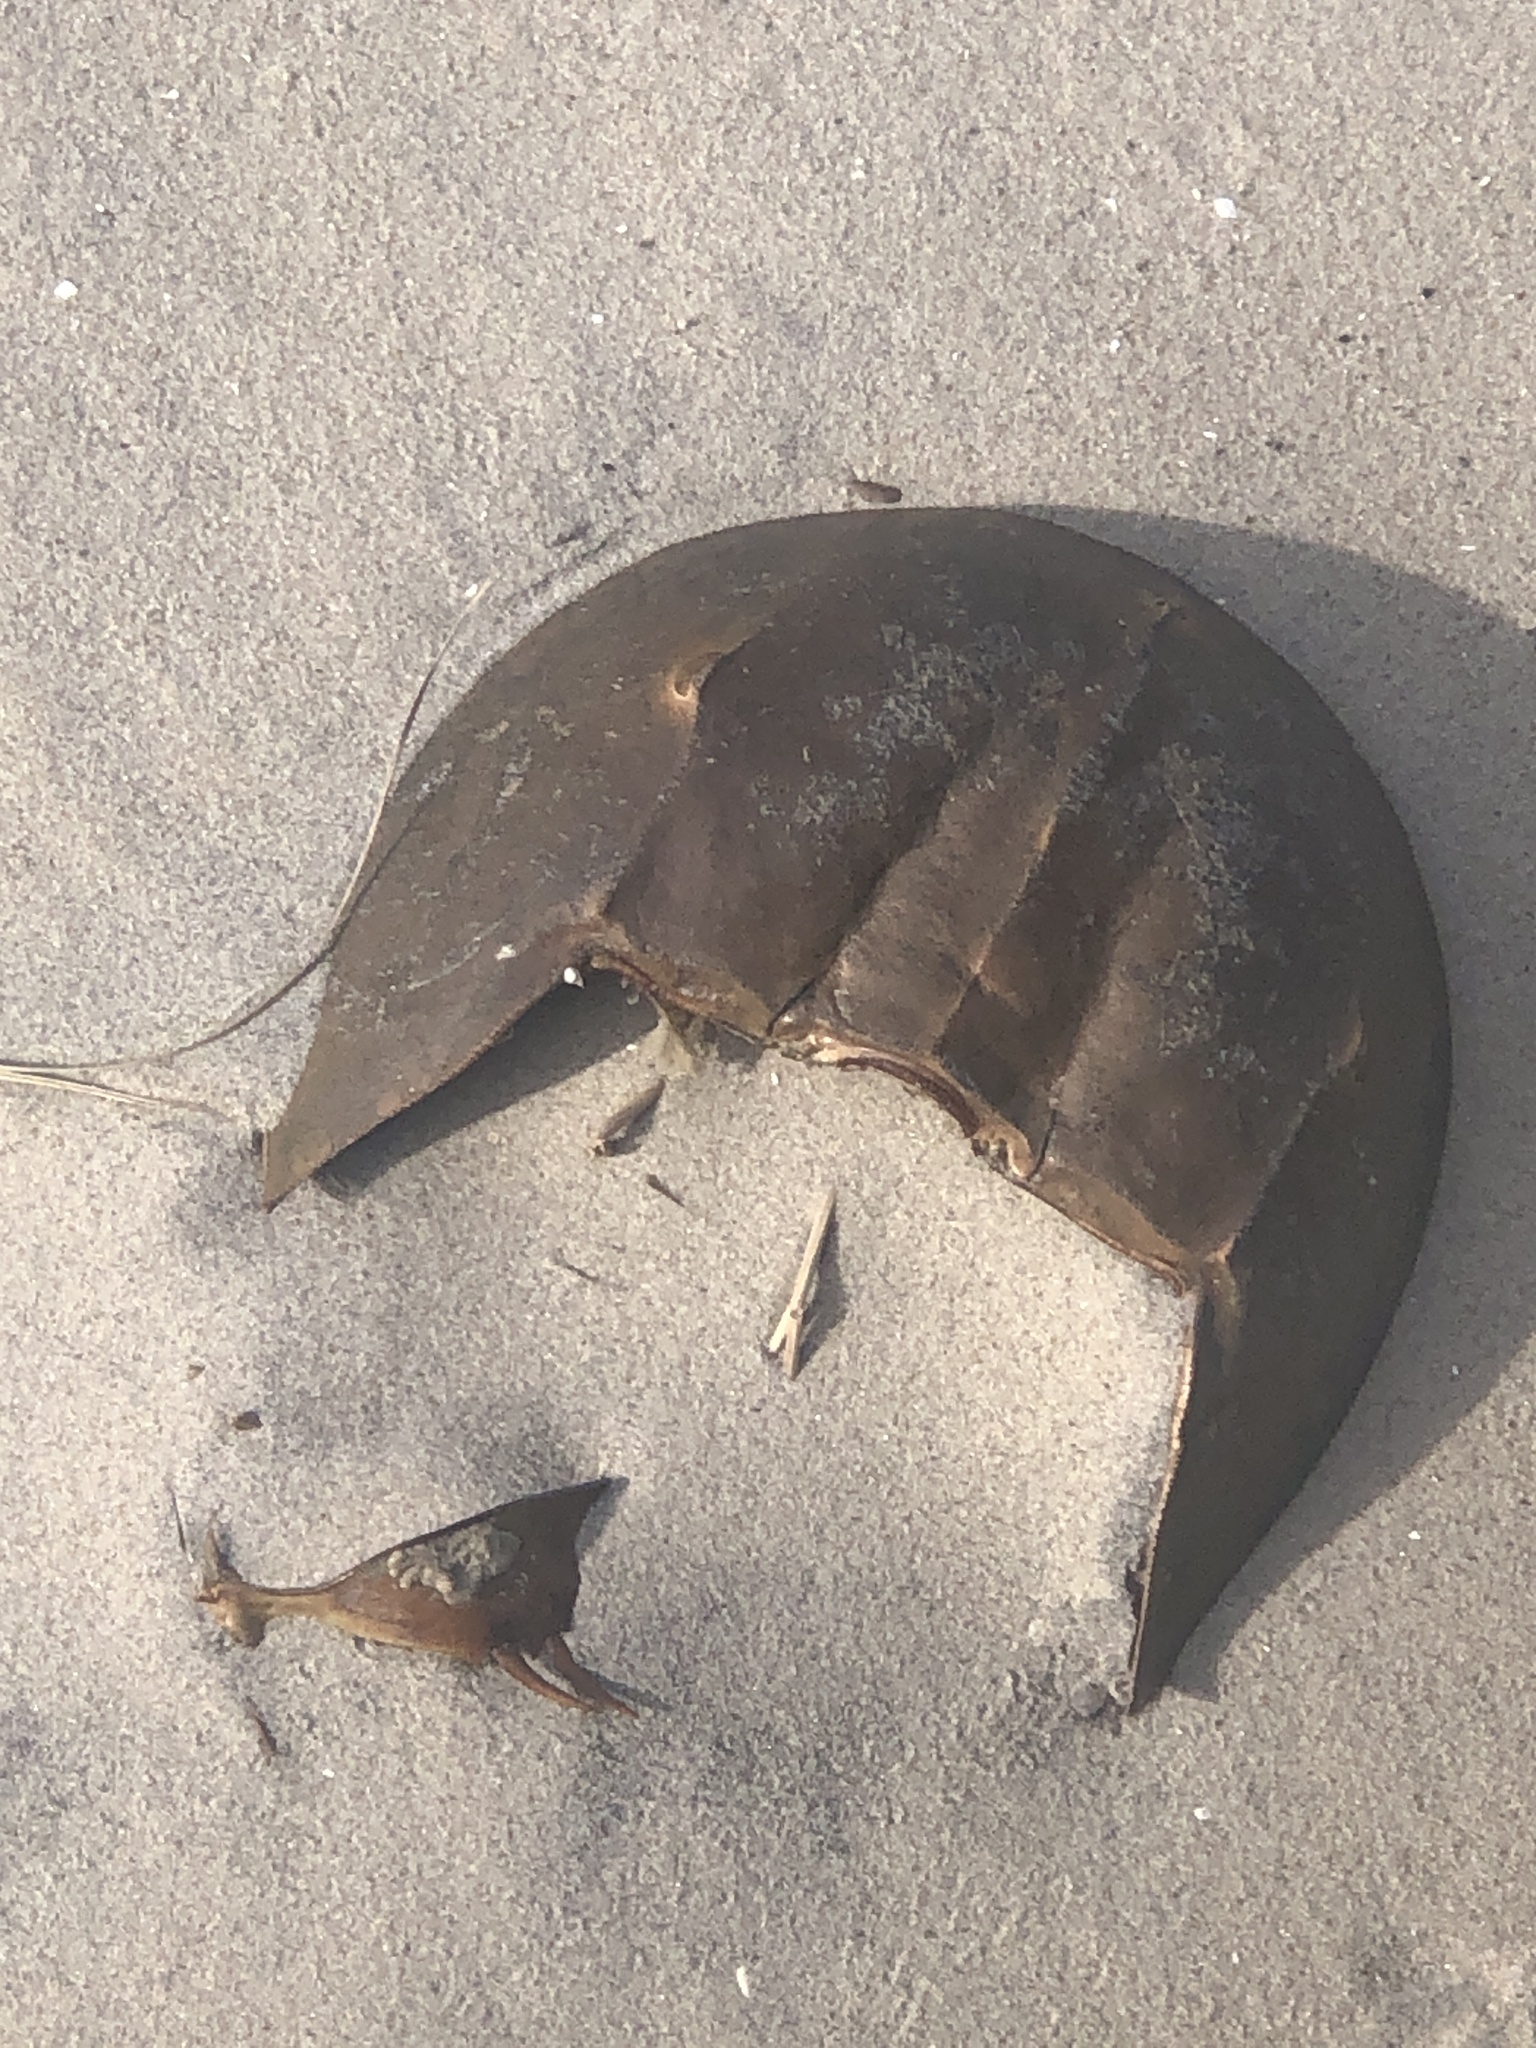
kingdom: Animalia
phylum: Arthropoda
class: Merostomata
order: Xiphosurida
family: Limulidae
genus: Limulus
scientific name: Limulus polyphemus
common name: Horseshoe crab
